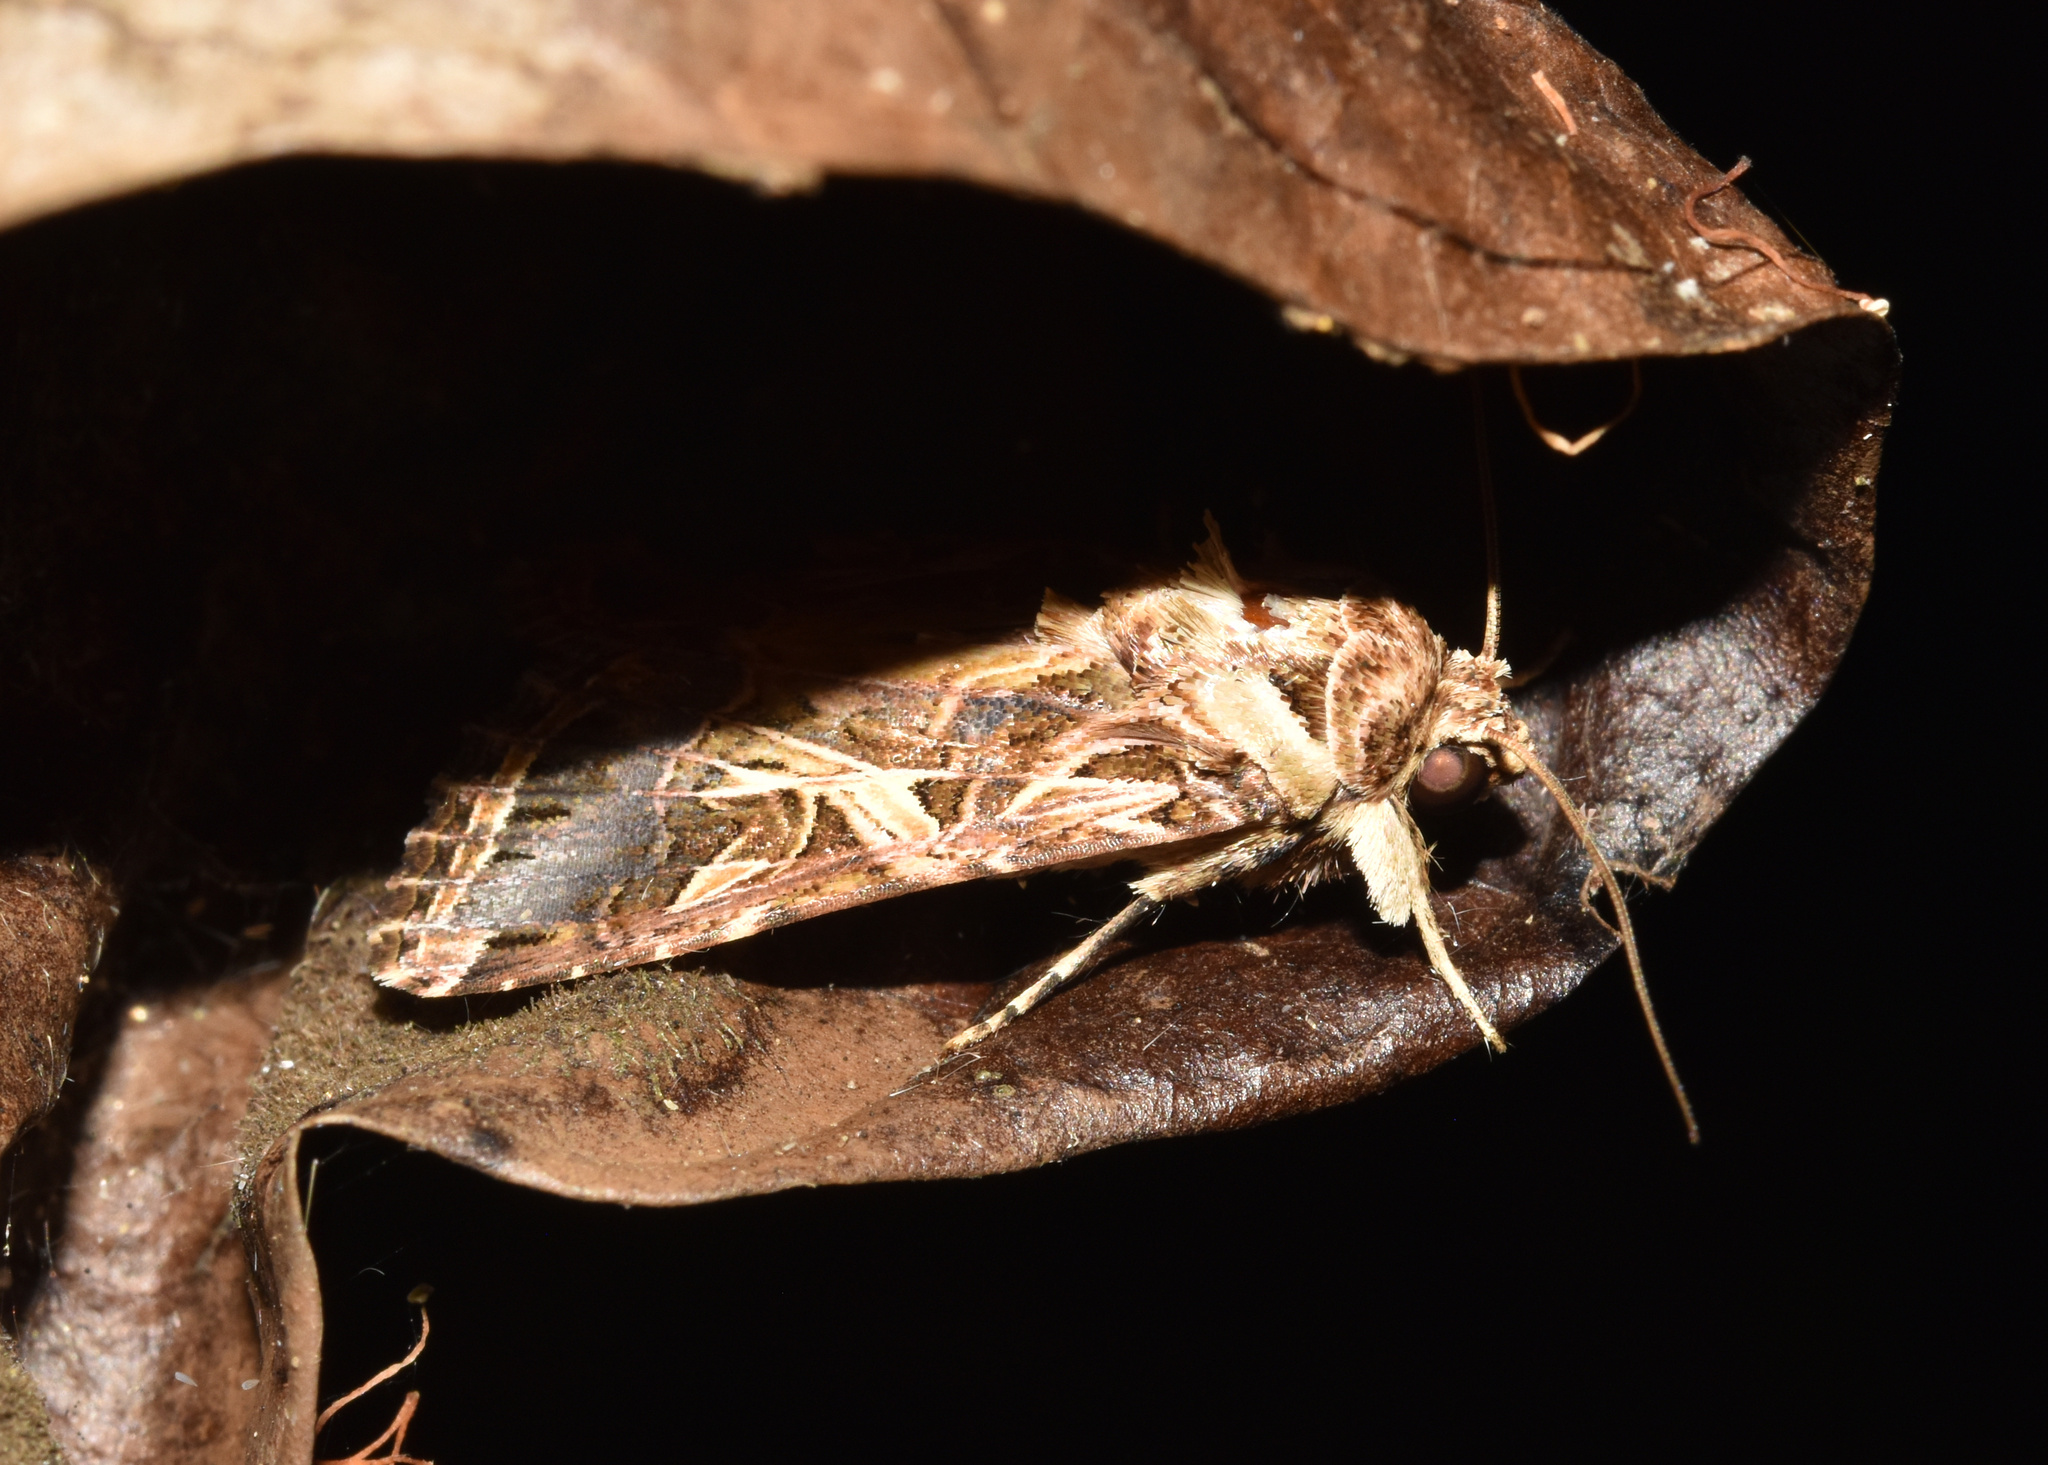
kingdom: Animalia
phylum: Arthropoda
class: Insecta
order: Lepidoptera
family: Noctuidae
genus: Spodoptera
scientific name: Spodoptera littoralis
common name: Egyptian cotton leafworm
